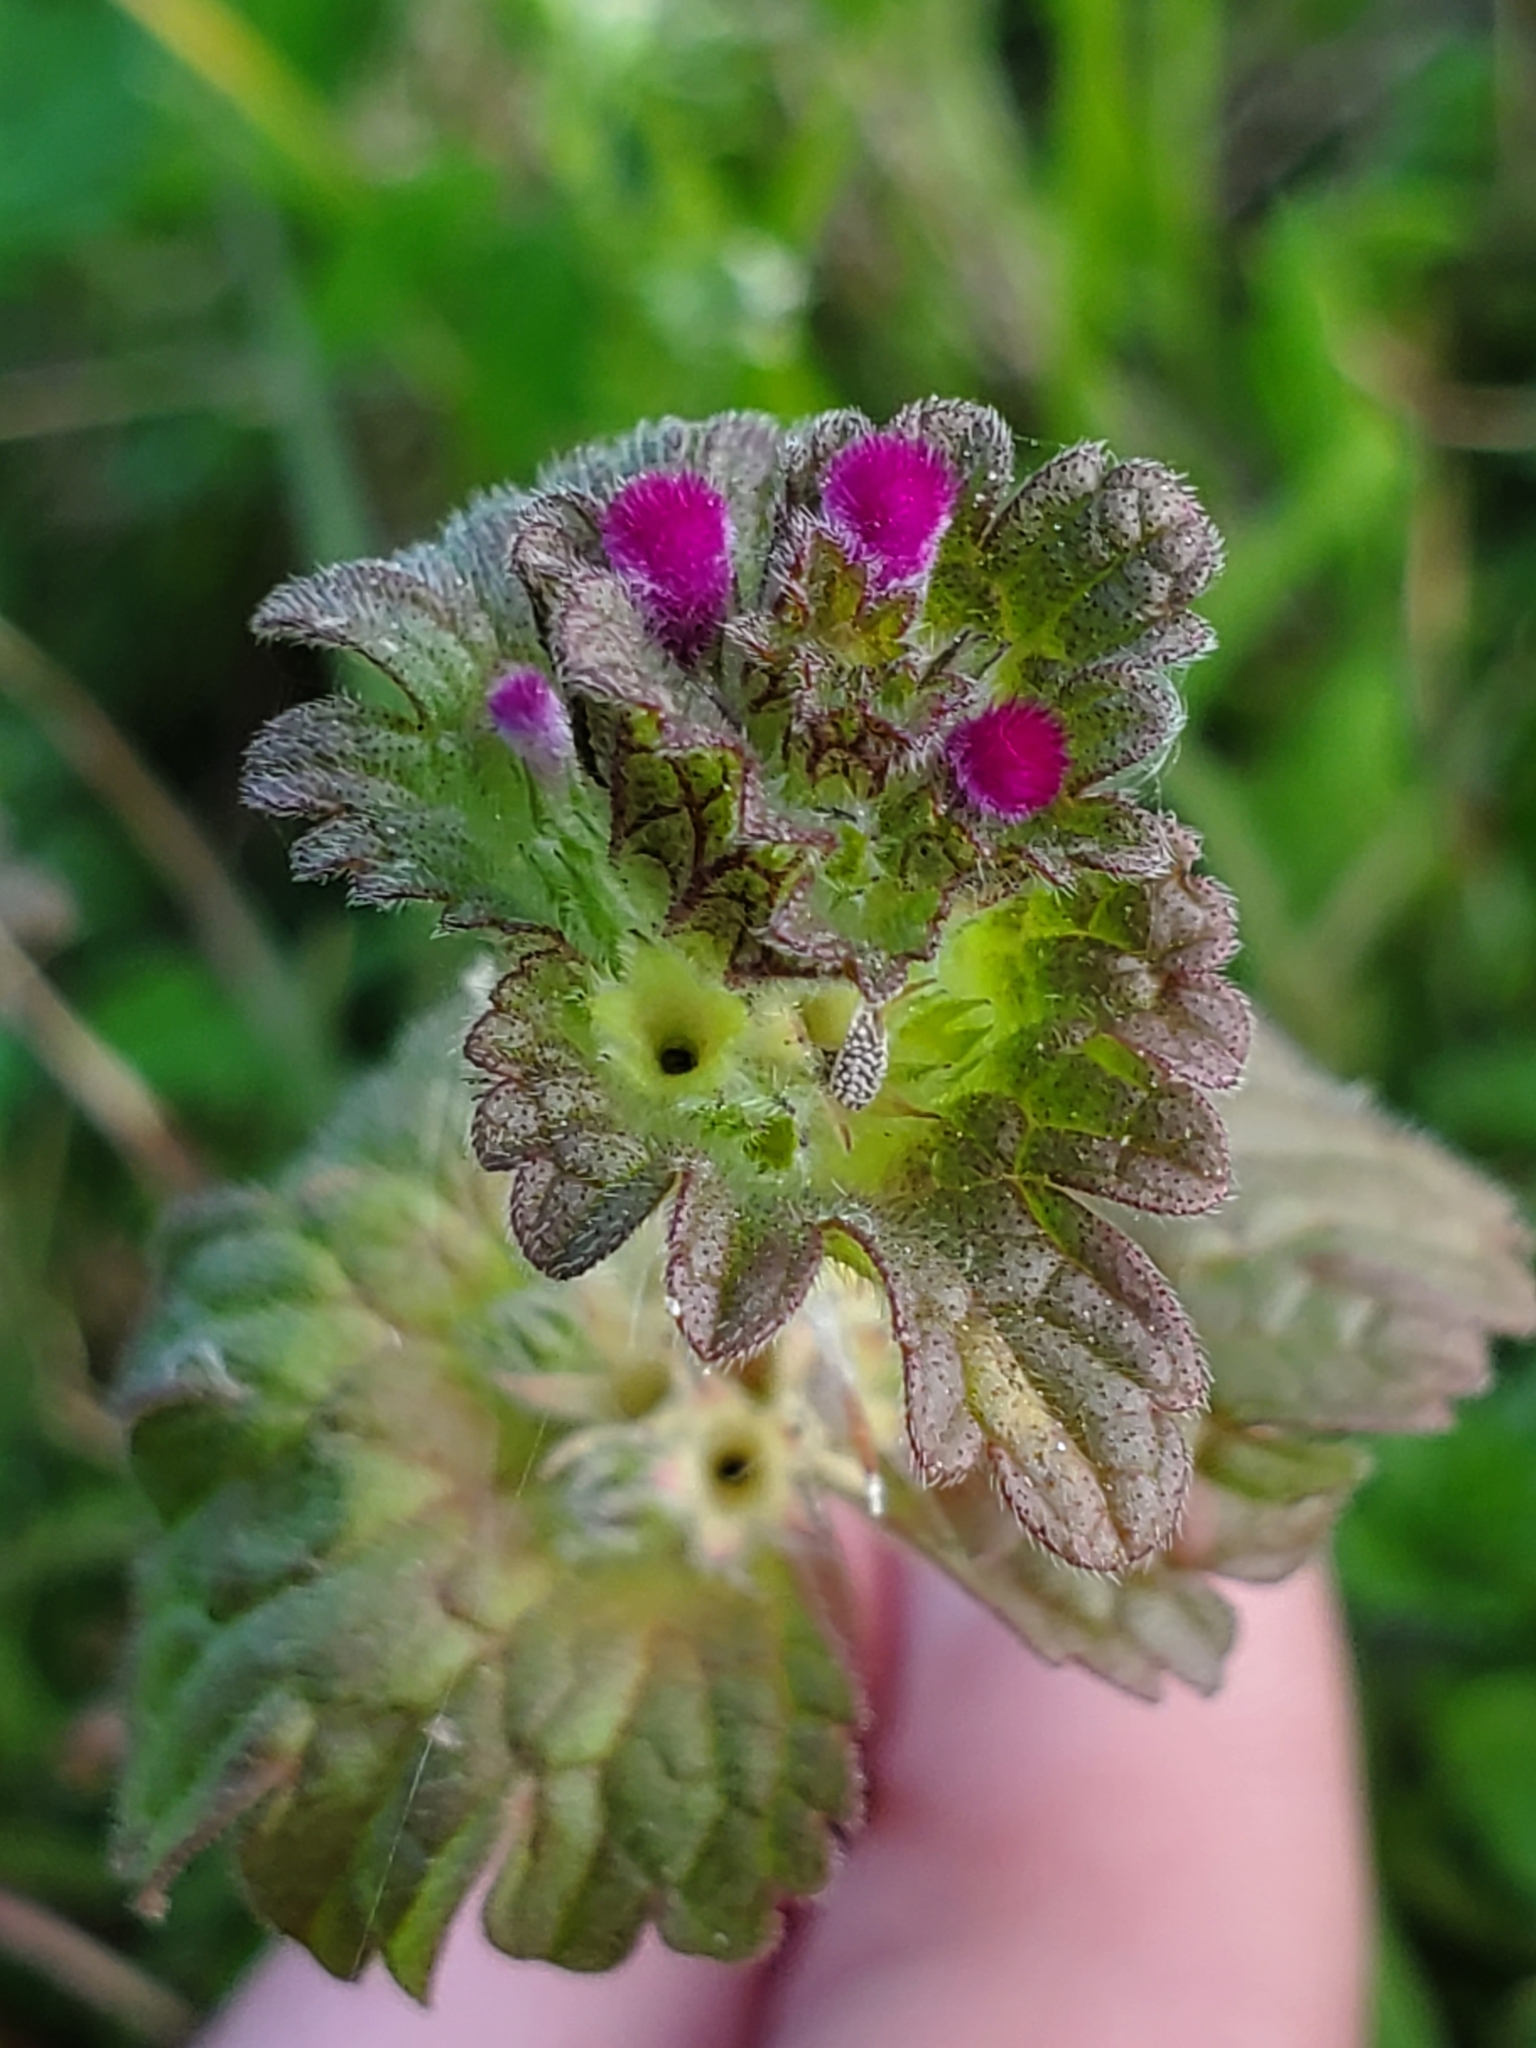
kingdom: Plantae
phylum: Tracheophyta
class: Magnoliopsida
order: Lamiales
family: Lamiaceae
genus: Lamium
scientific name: Lamium amplexicaule
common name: Henbit dead-nettle
